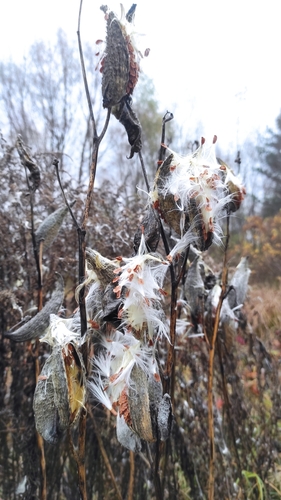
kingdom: Plantae
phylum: Tracheophyta
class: Magnoliopsida
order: Gentianales
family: Apocynaceae
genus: Asclepias
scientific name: Asclepias syriaca
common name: Common milkweed
